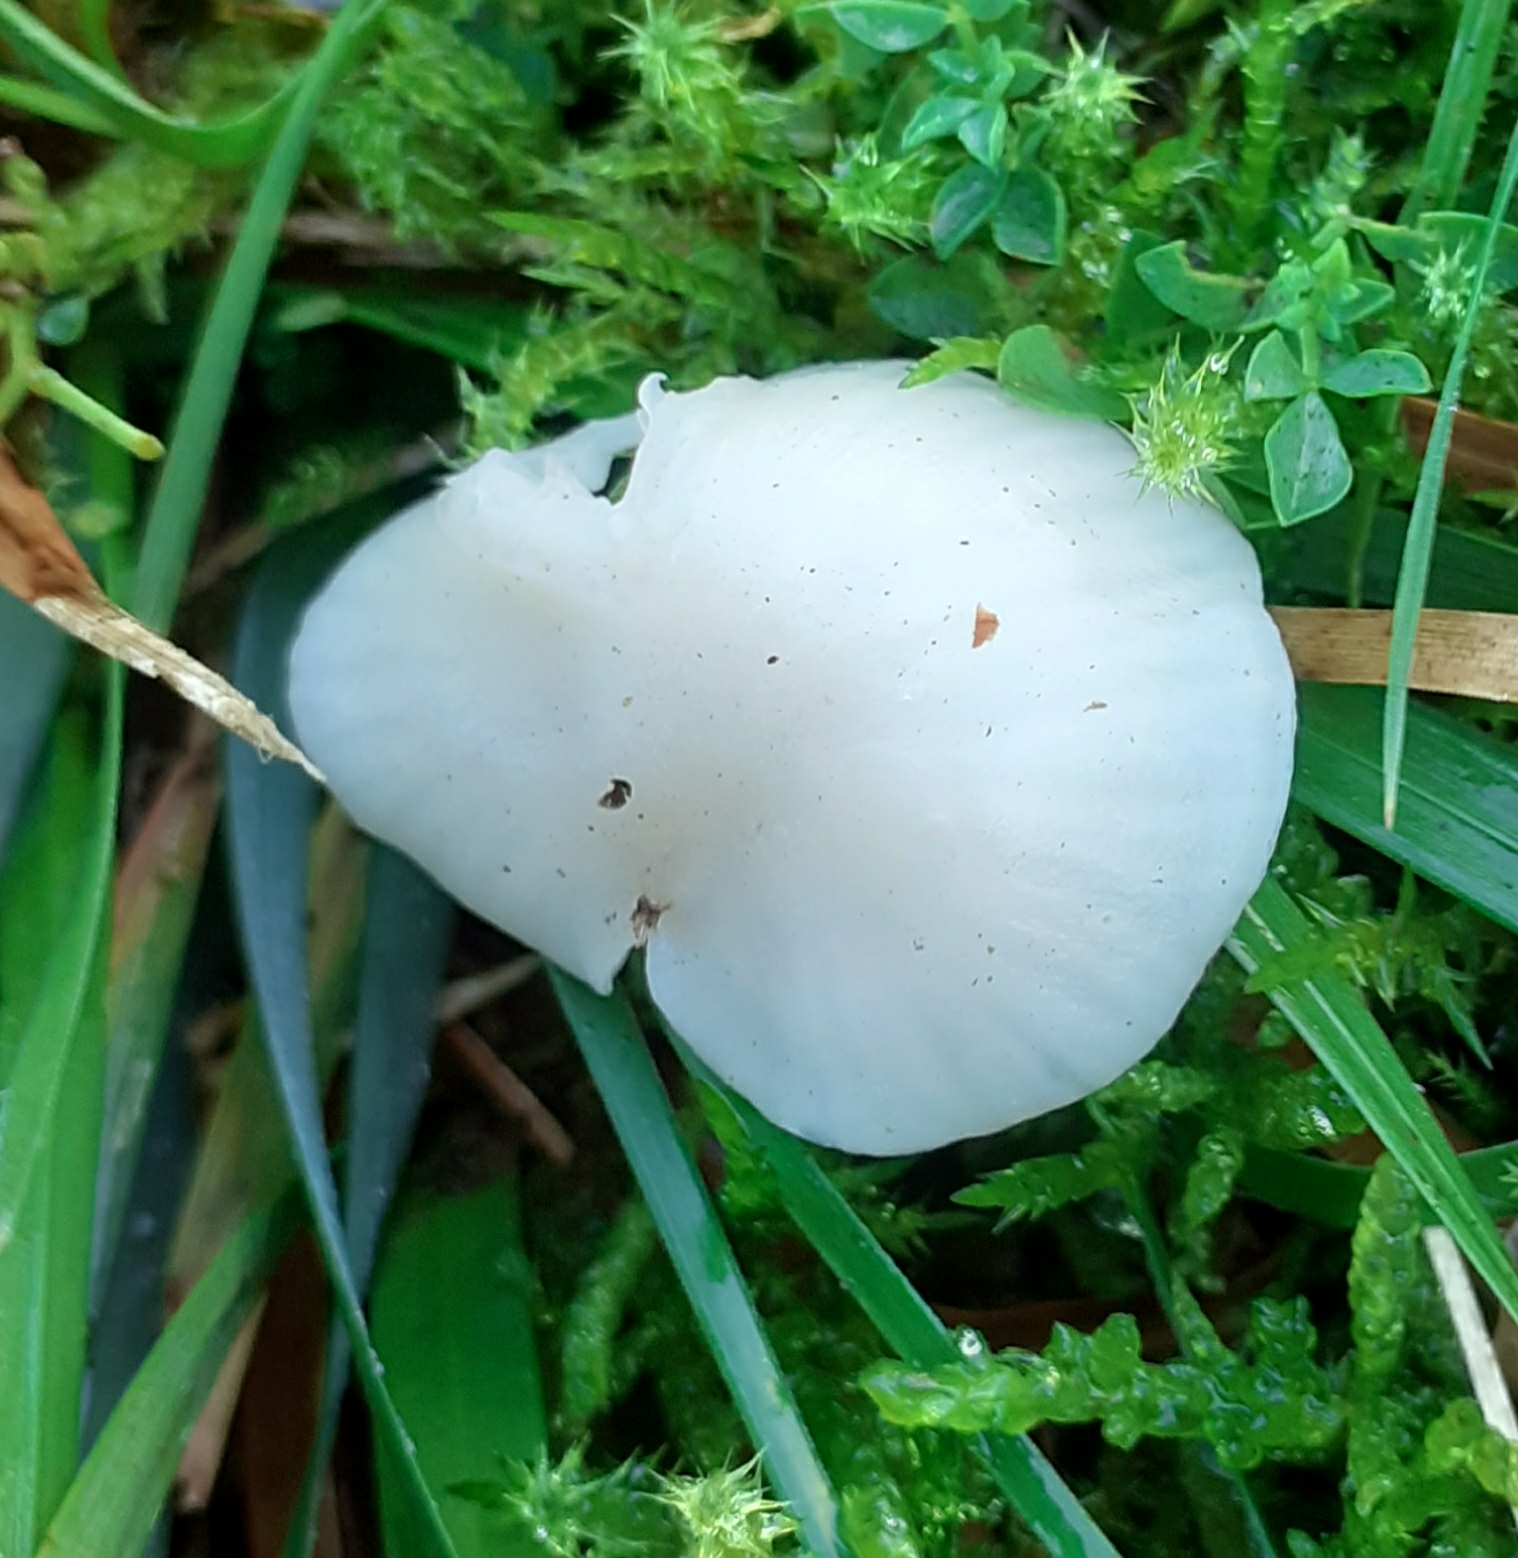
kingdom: Fungi
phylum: Basidiomycota
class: Agaricomycetes
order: Agaricales
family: Hygrophoraceae
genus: Cuphophyllus
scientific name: Cuphophyllus virgineus
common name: Snowy waxcap
